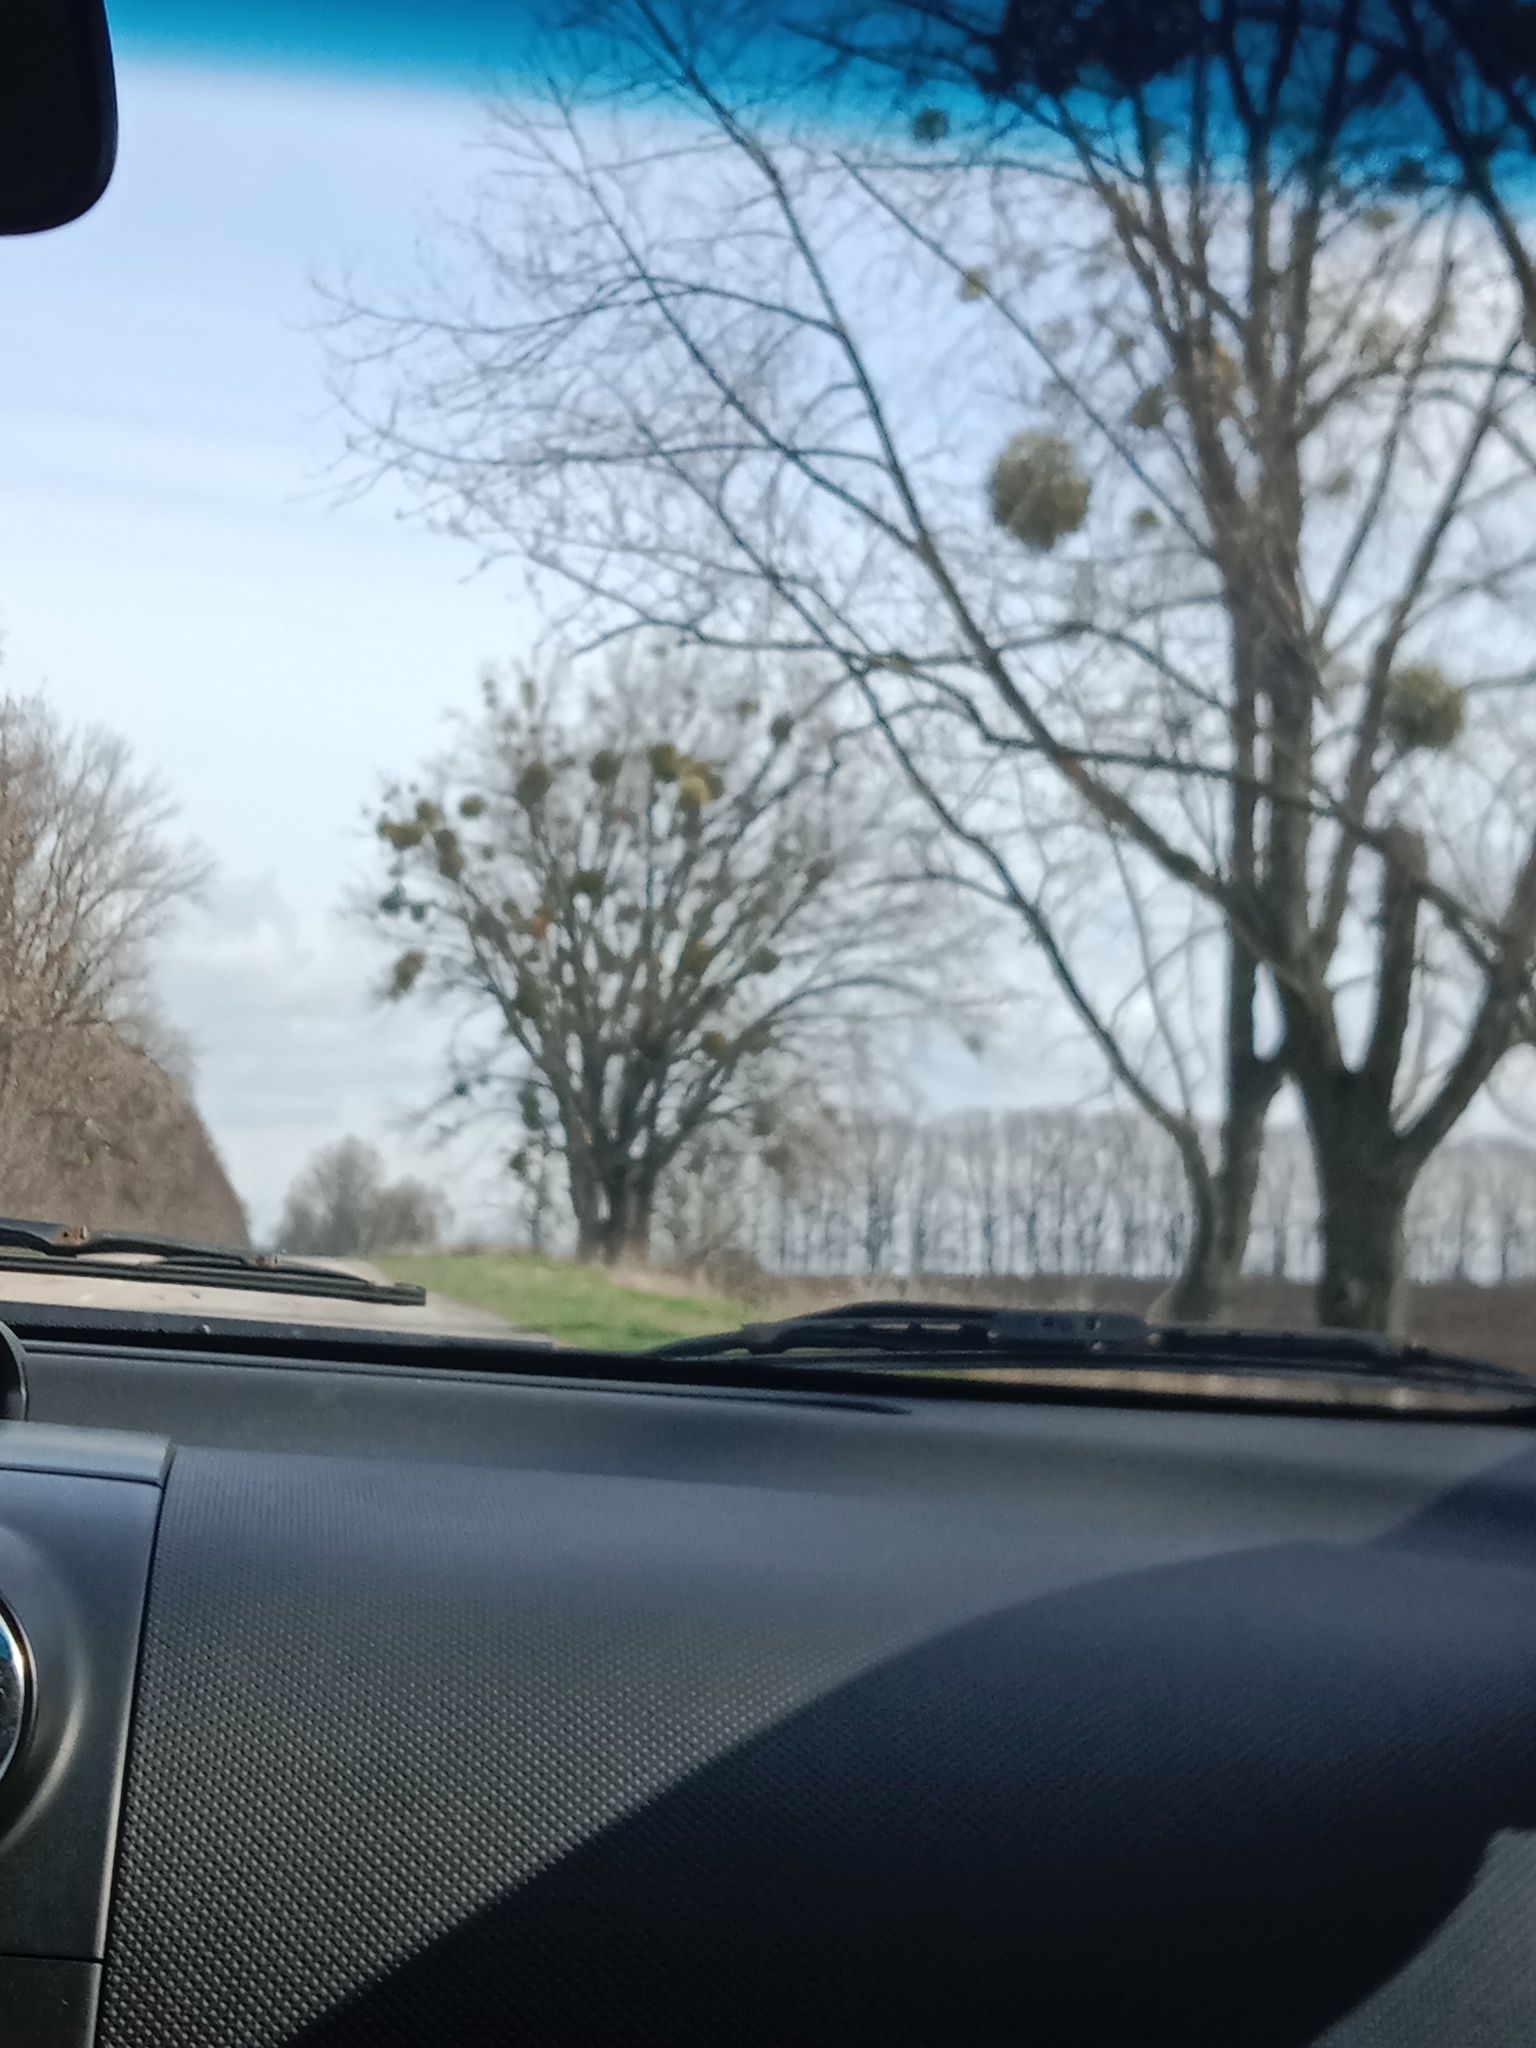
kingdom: Plantae
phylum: Tracheophyta
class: Magnoliopsida
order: Santalales
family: Viscaceae
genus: Viscum
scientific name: Viscum album
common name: Mistletoe
